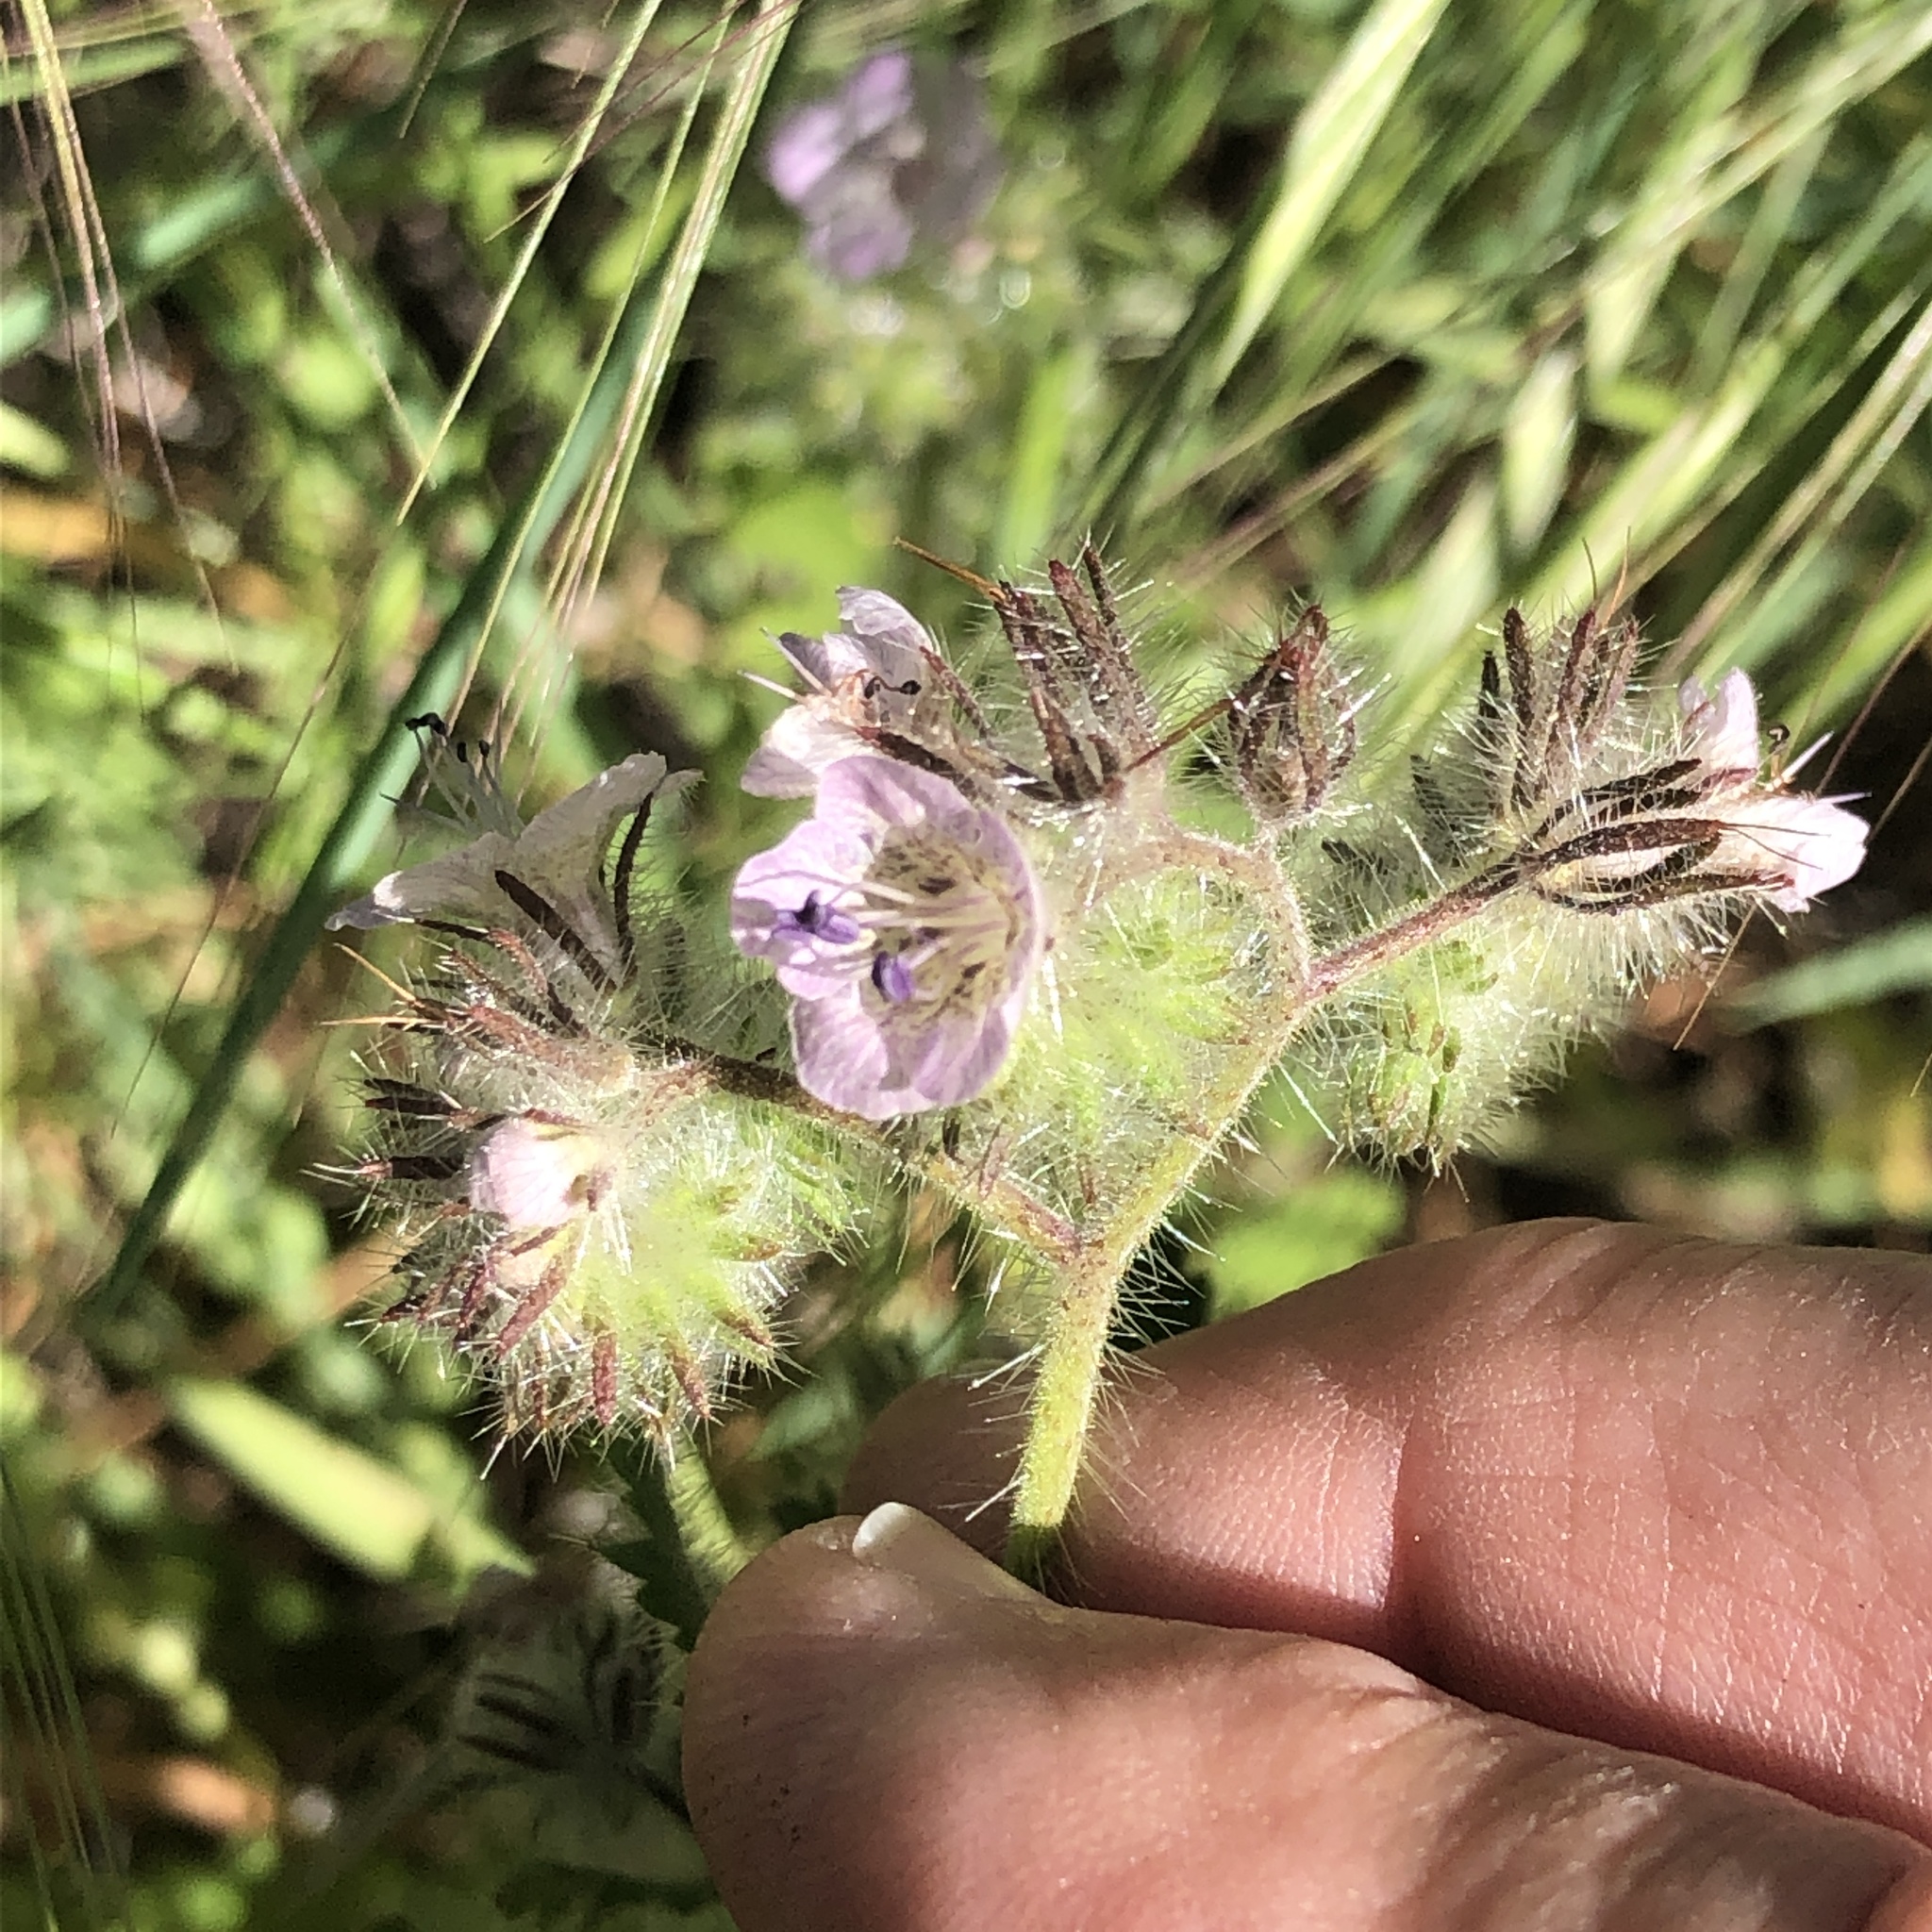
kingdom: Plantae
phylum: Tracheophyta
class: Magnoliopsida
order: Boraginales
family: Hydrophyllaceae
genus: Phacelia
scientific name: Phacelia cicutaria
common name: Caterpillar phacelia
